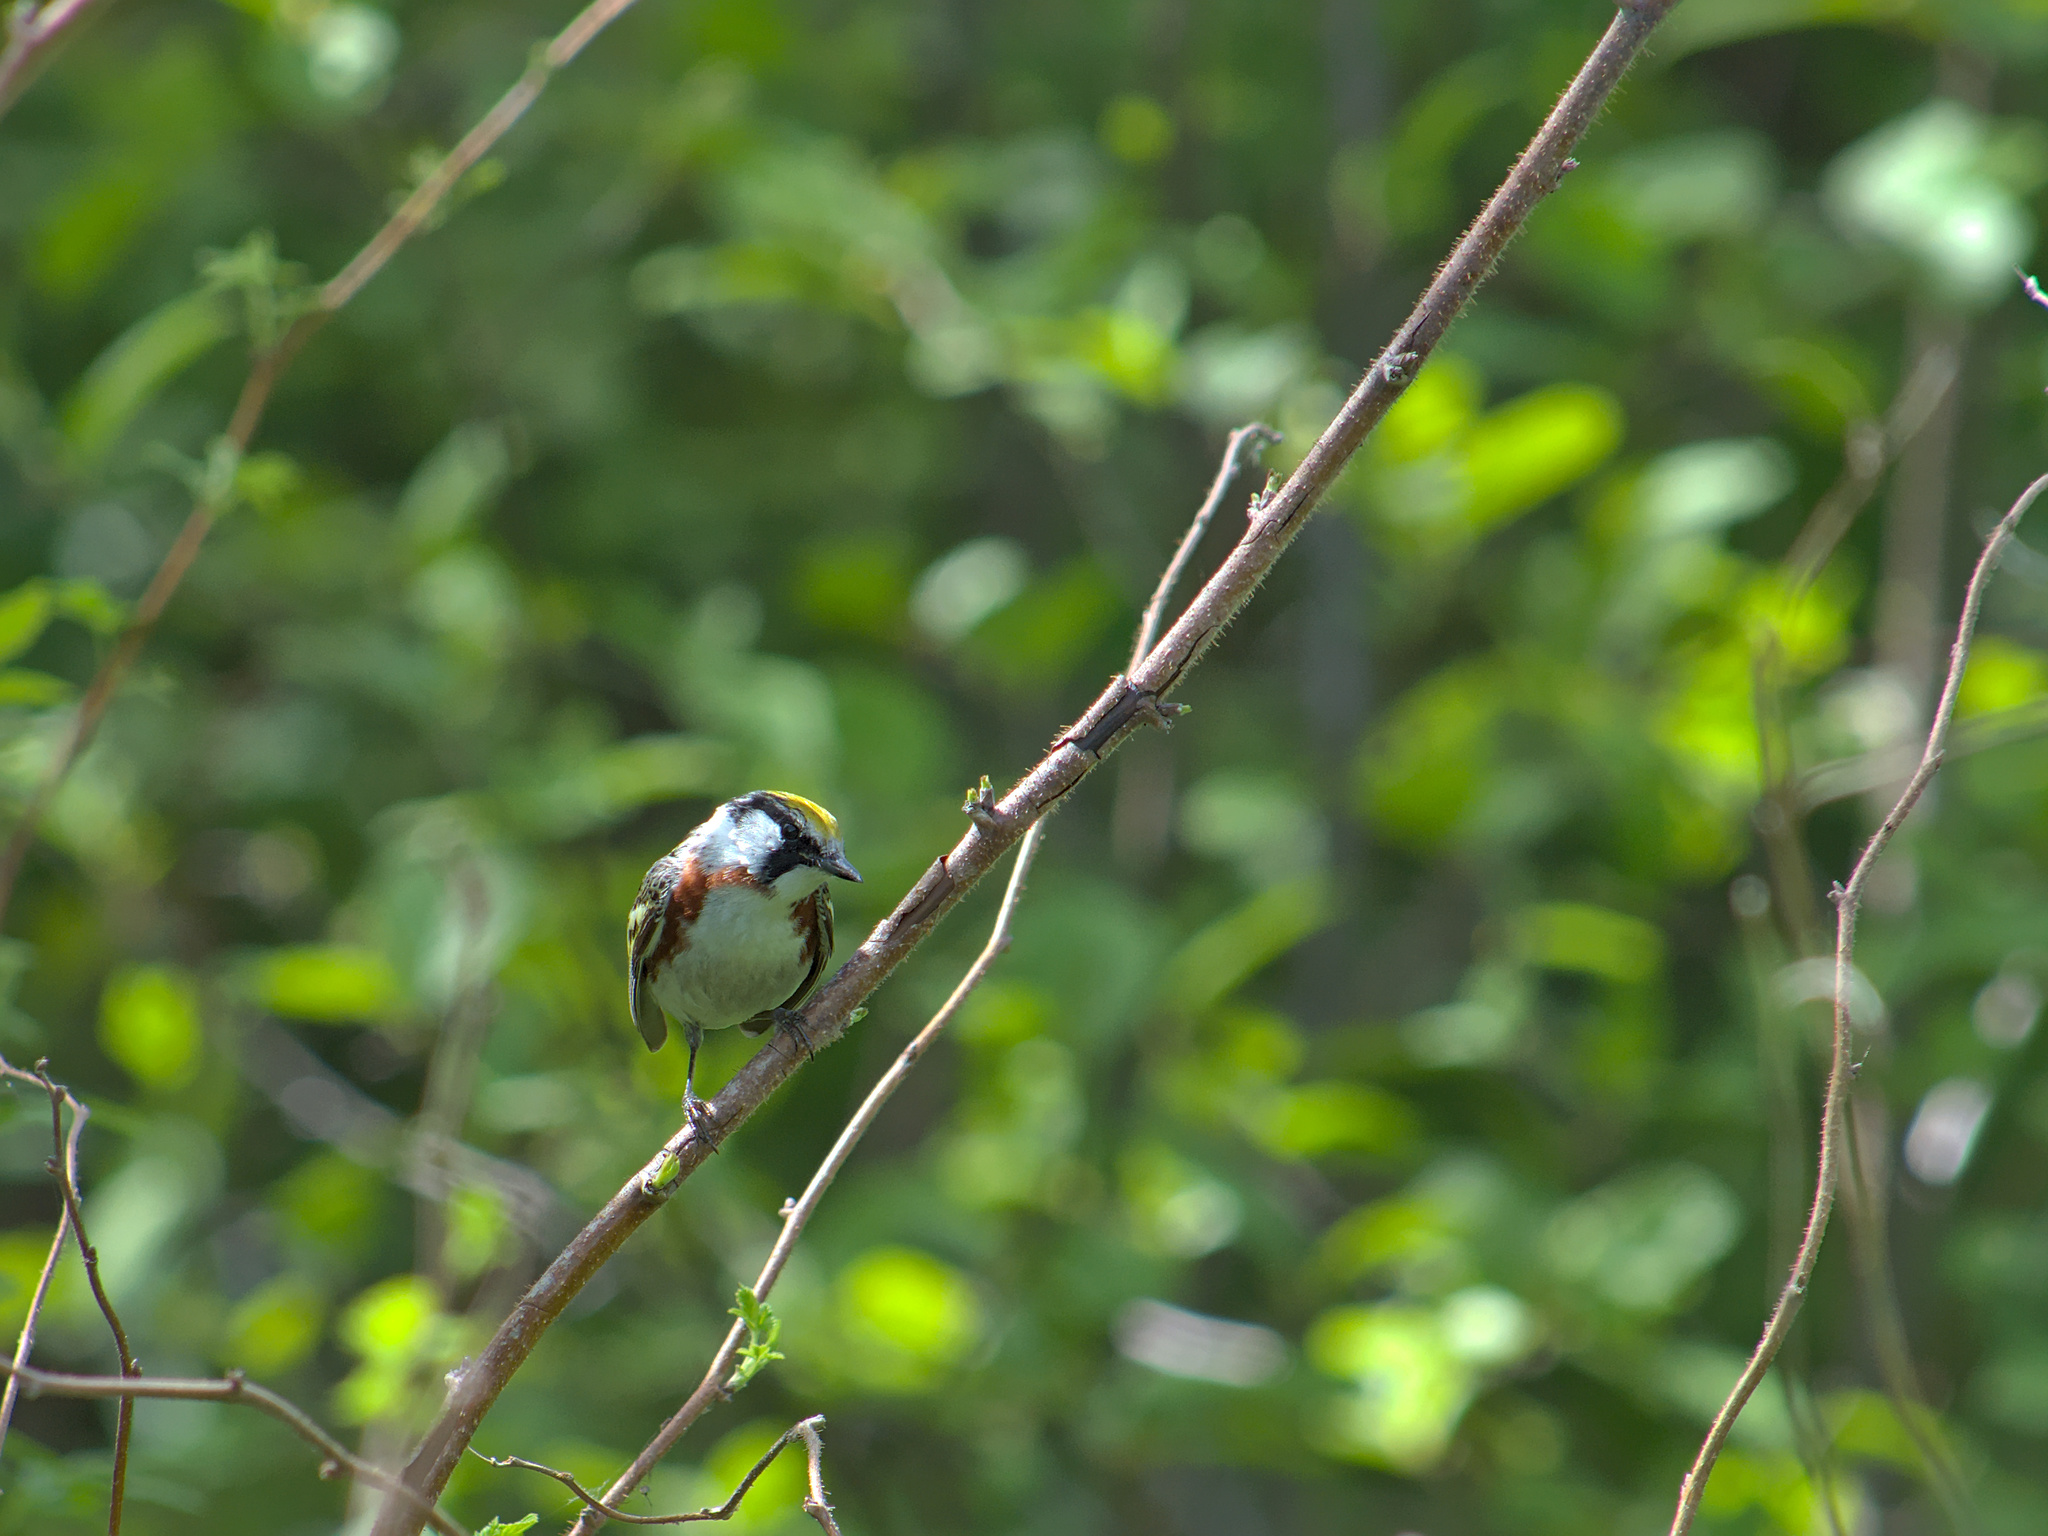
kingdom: Animalia
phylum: Chordata
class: Aves
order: Passeriformes
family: Parulidae
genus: Setophaga
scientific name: Setophaga pensylvanica
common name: Chestnut-sided warbler
